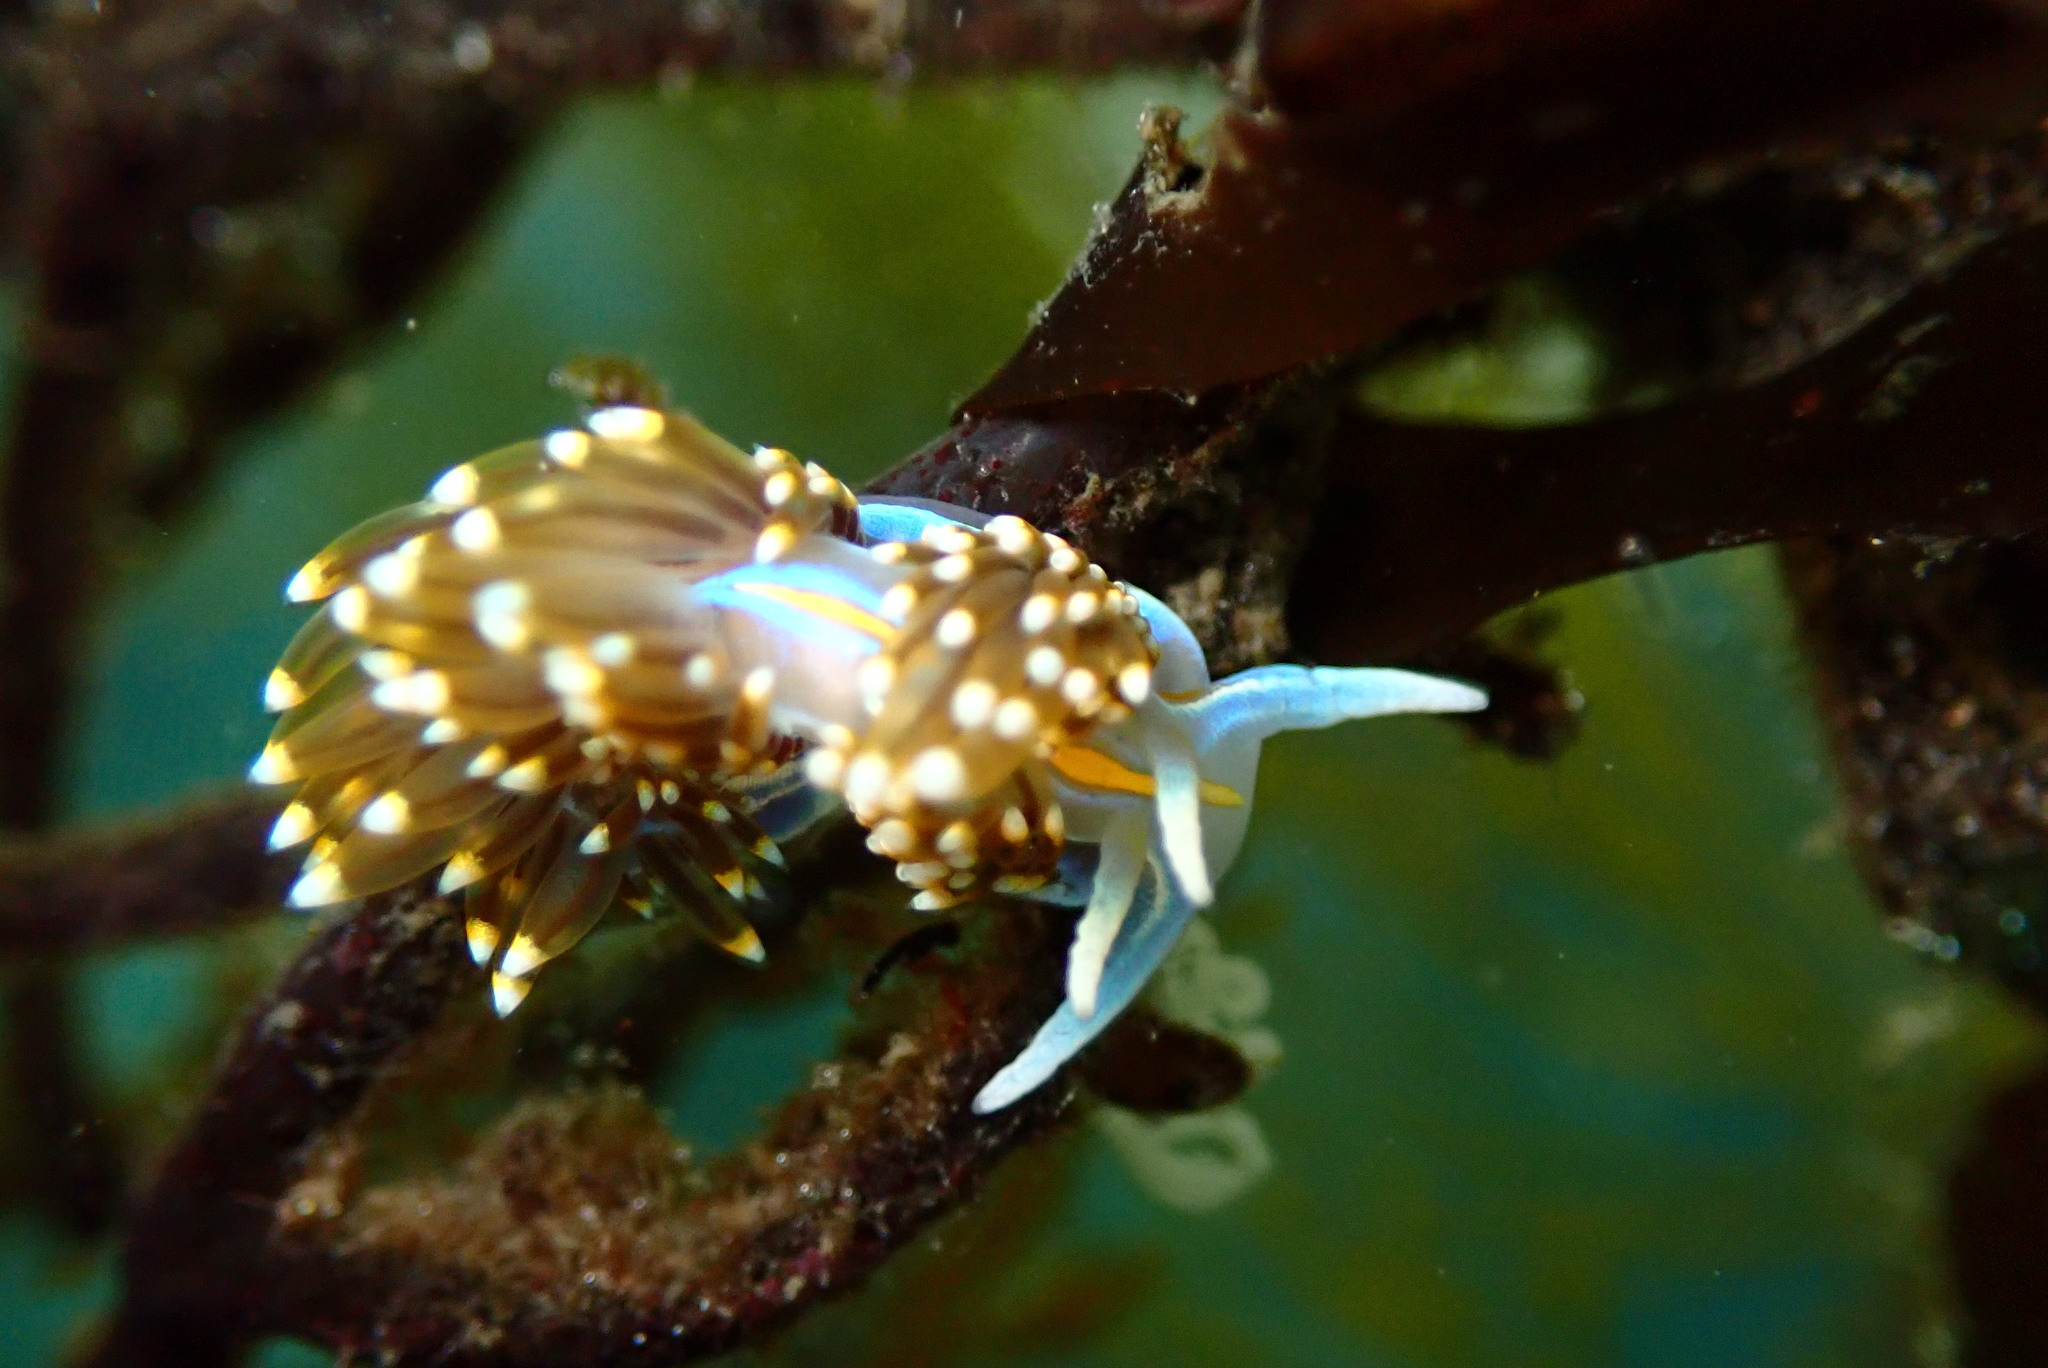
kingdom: Animalia
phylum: Mollusca
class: Gastropoda
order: Nudibranchia
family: Myrrhinidae
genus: Hermissenda
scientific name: Hermissenda opalescens
